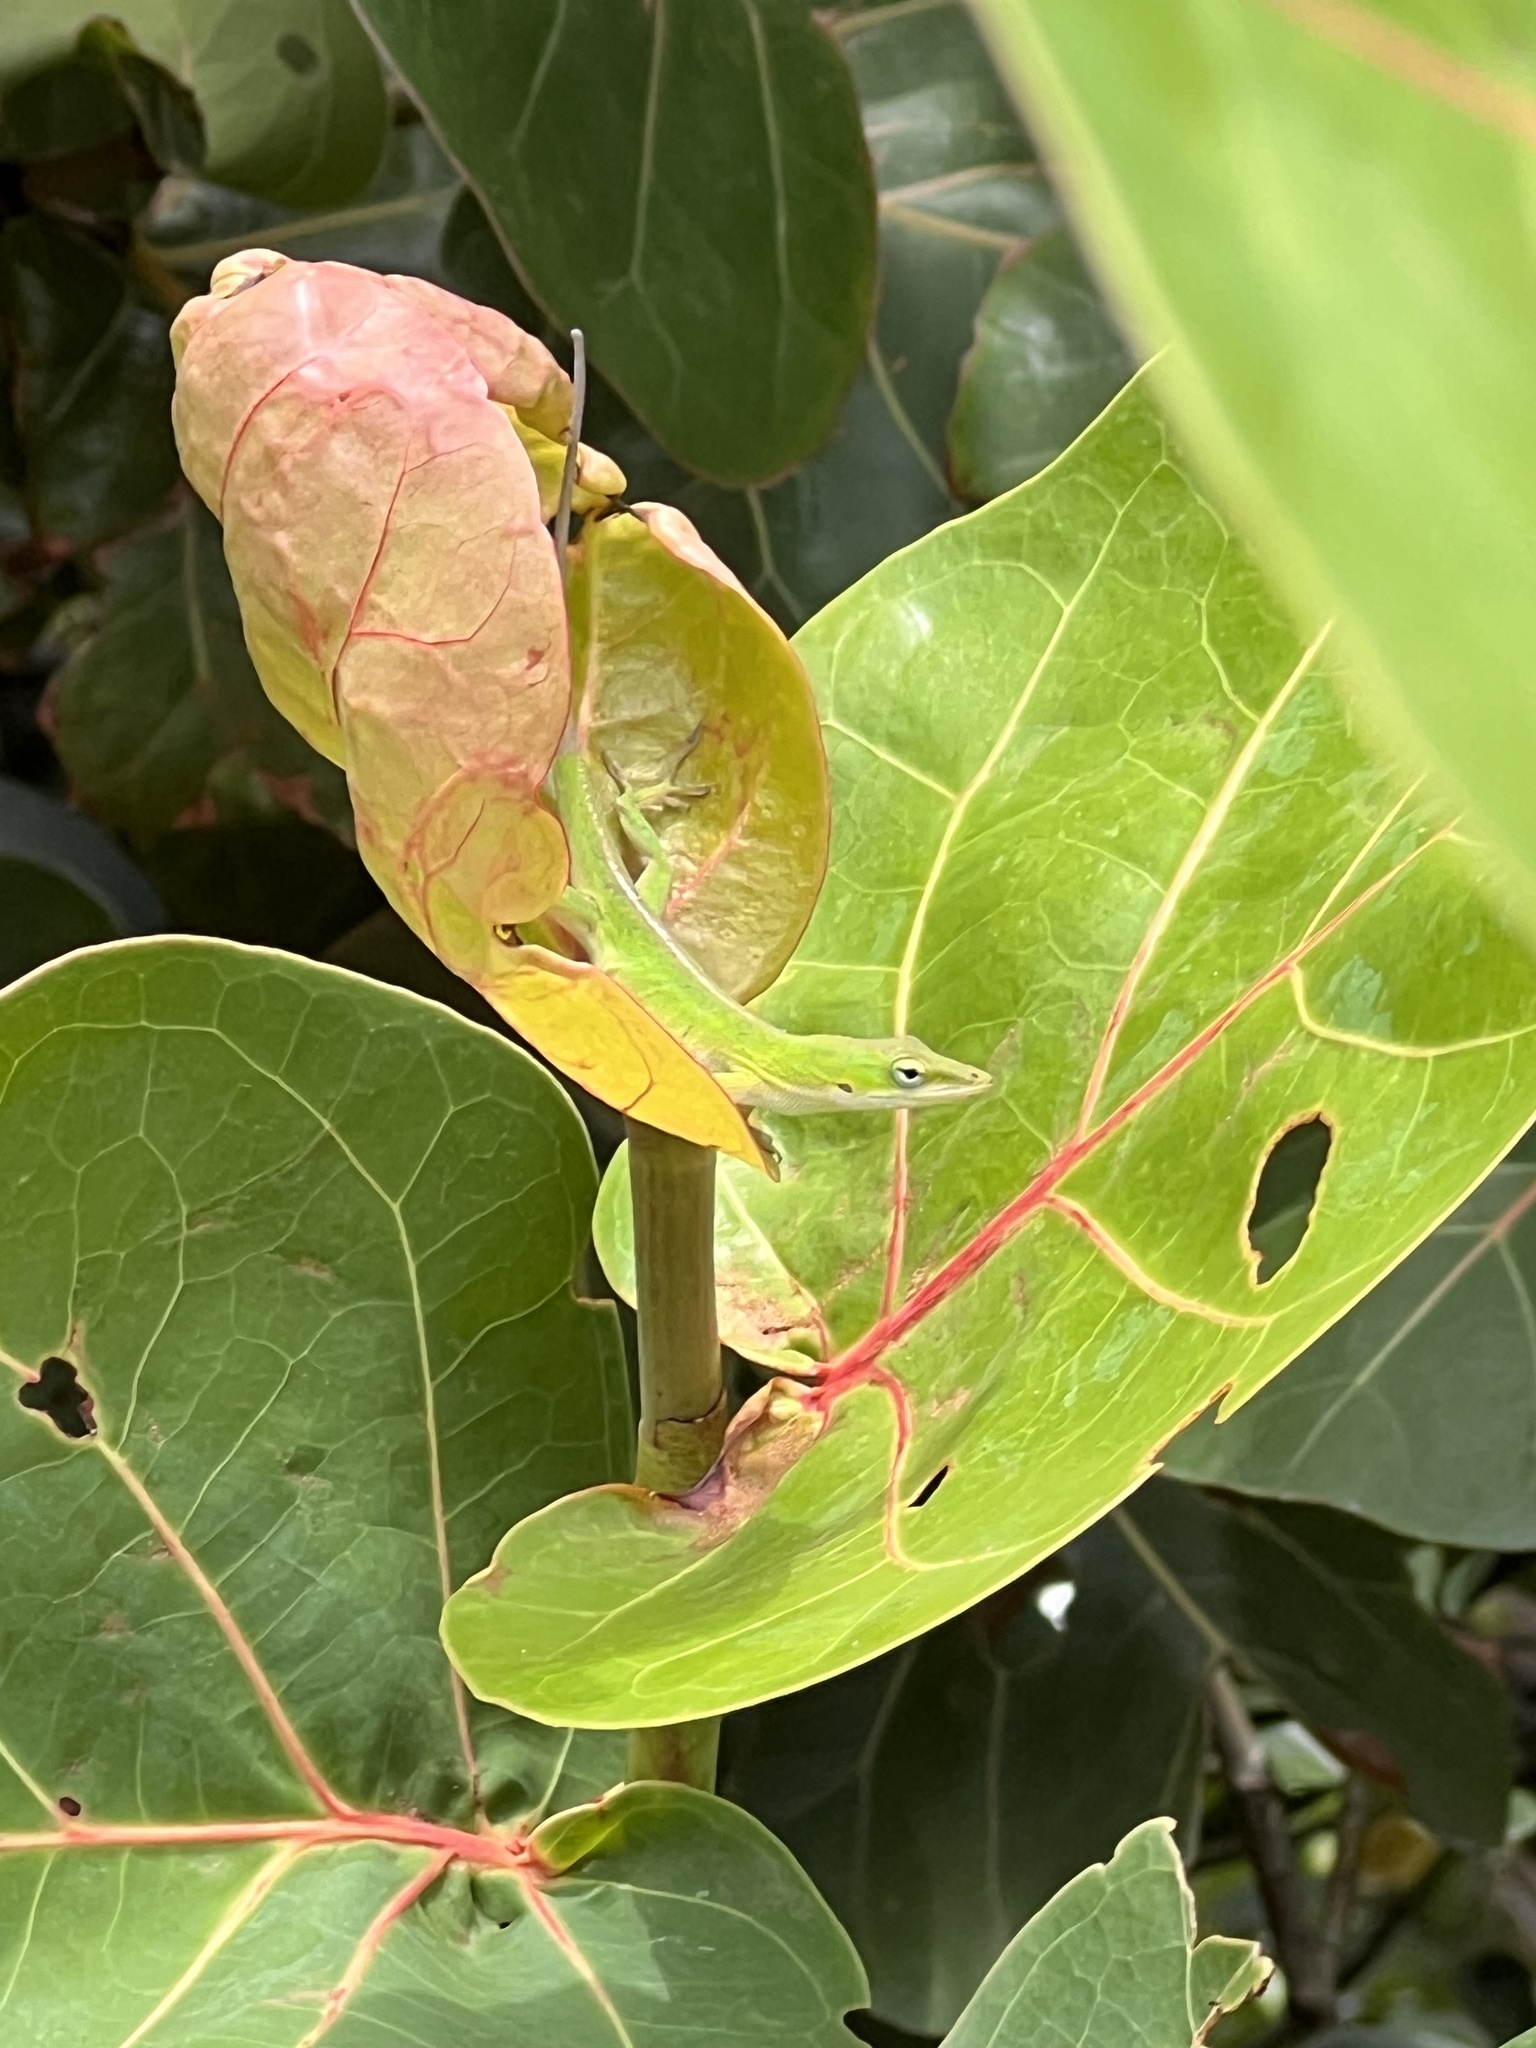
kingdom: Animalia
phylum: Chordata
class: Squamata
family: Dactyloidae
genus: Anolis
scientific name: Anolis carolinensis
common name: Green anole
